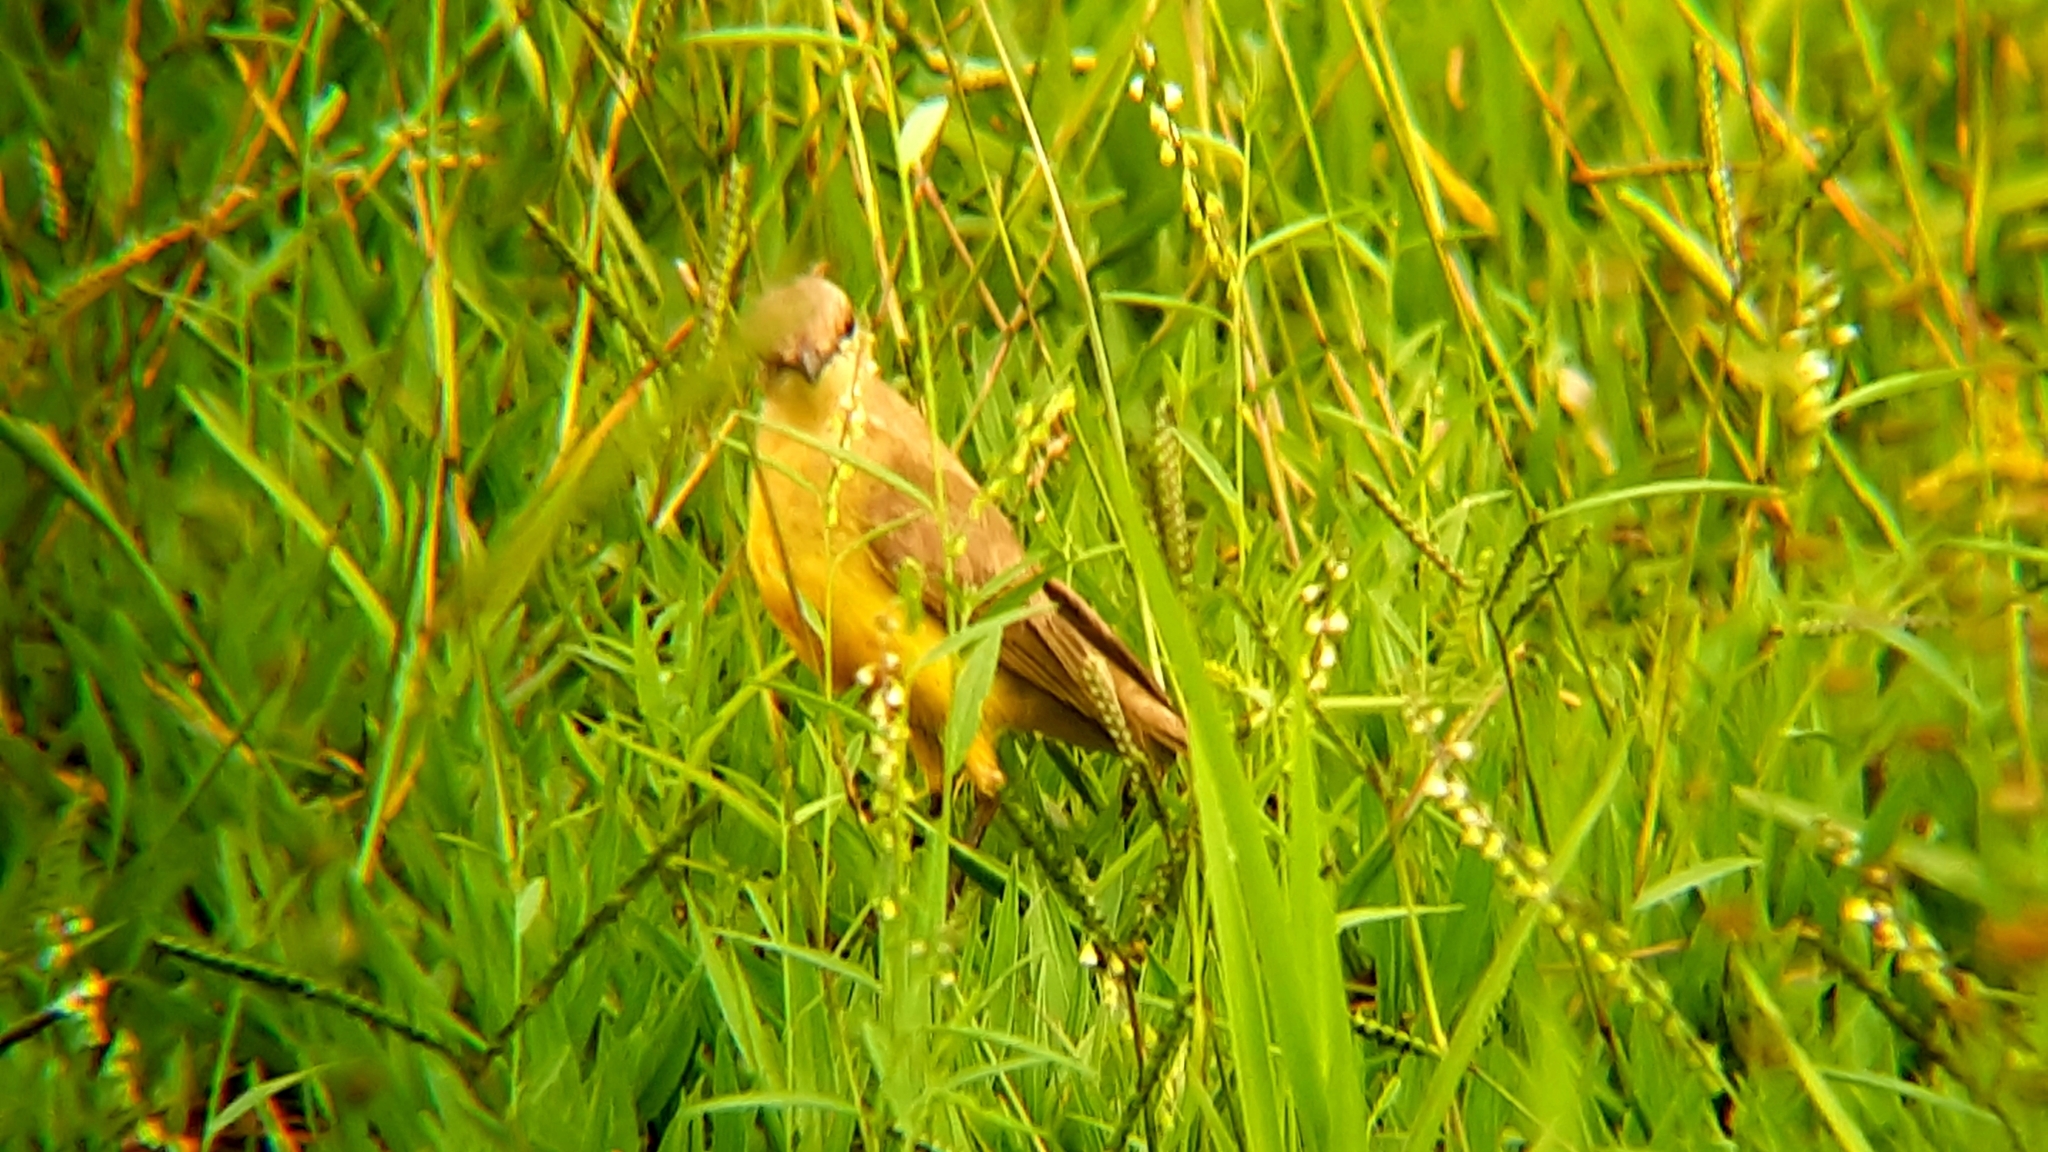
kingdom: Animalia
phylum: Chordata
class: Aves
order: Passeriformes
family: Tyrannidae
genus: Machetornis
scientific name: Machetornis rixosa
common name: Cattle tyrant
